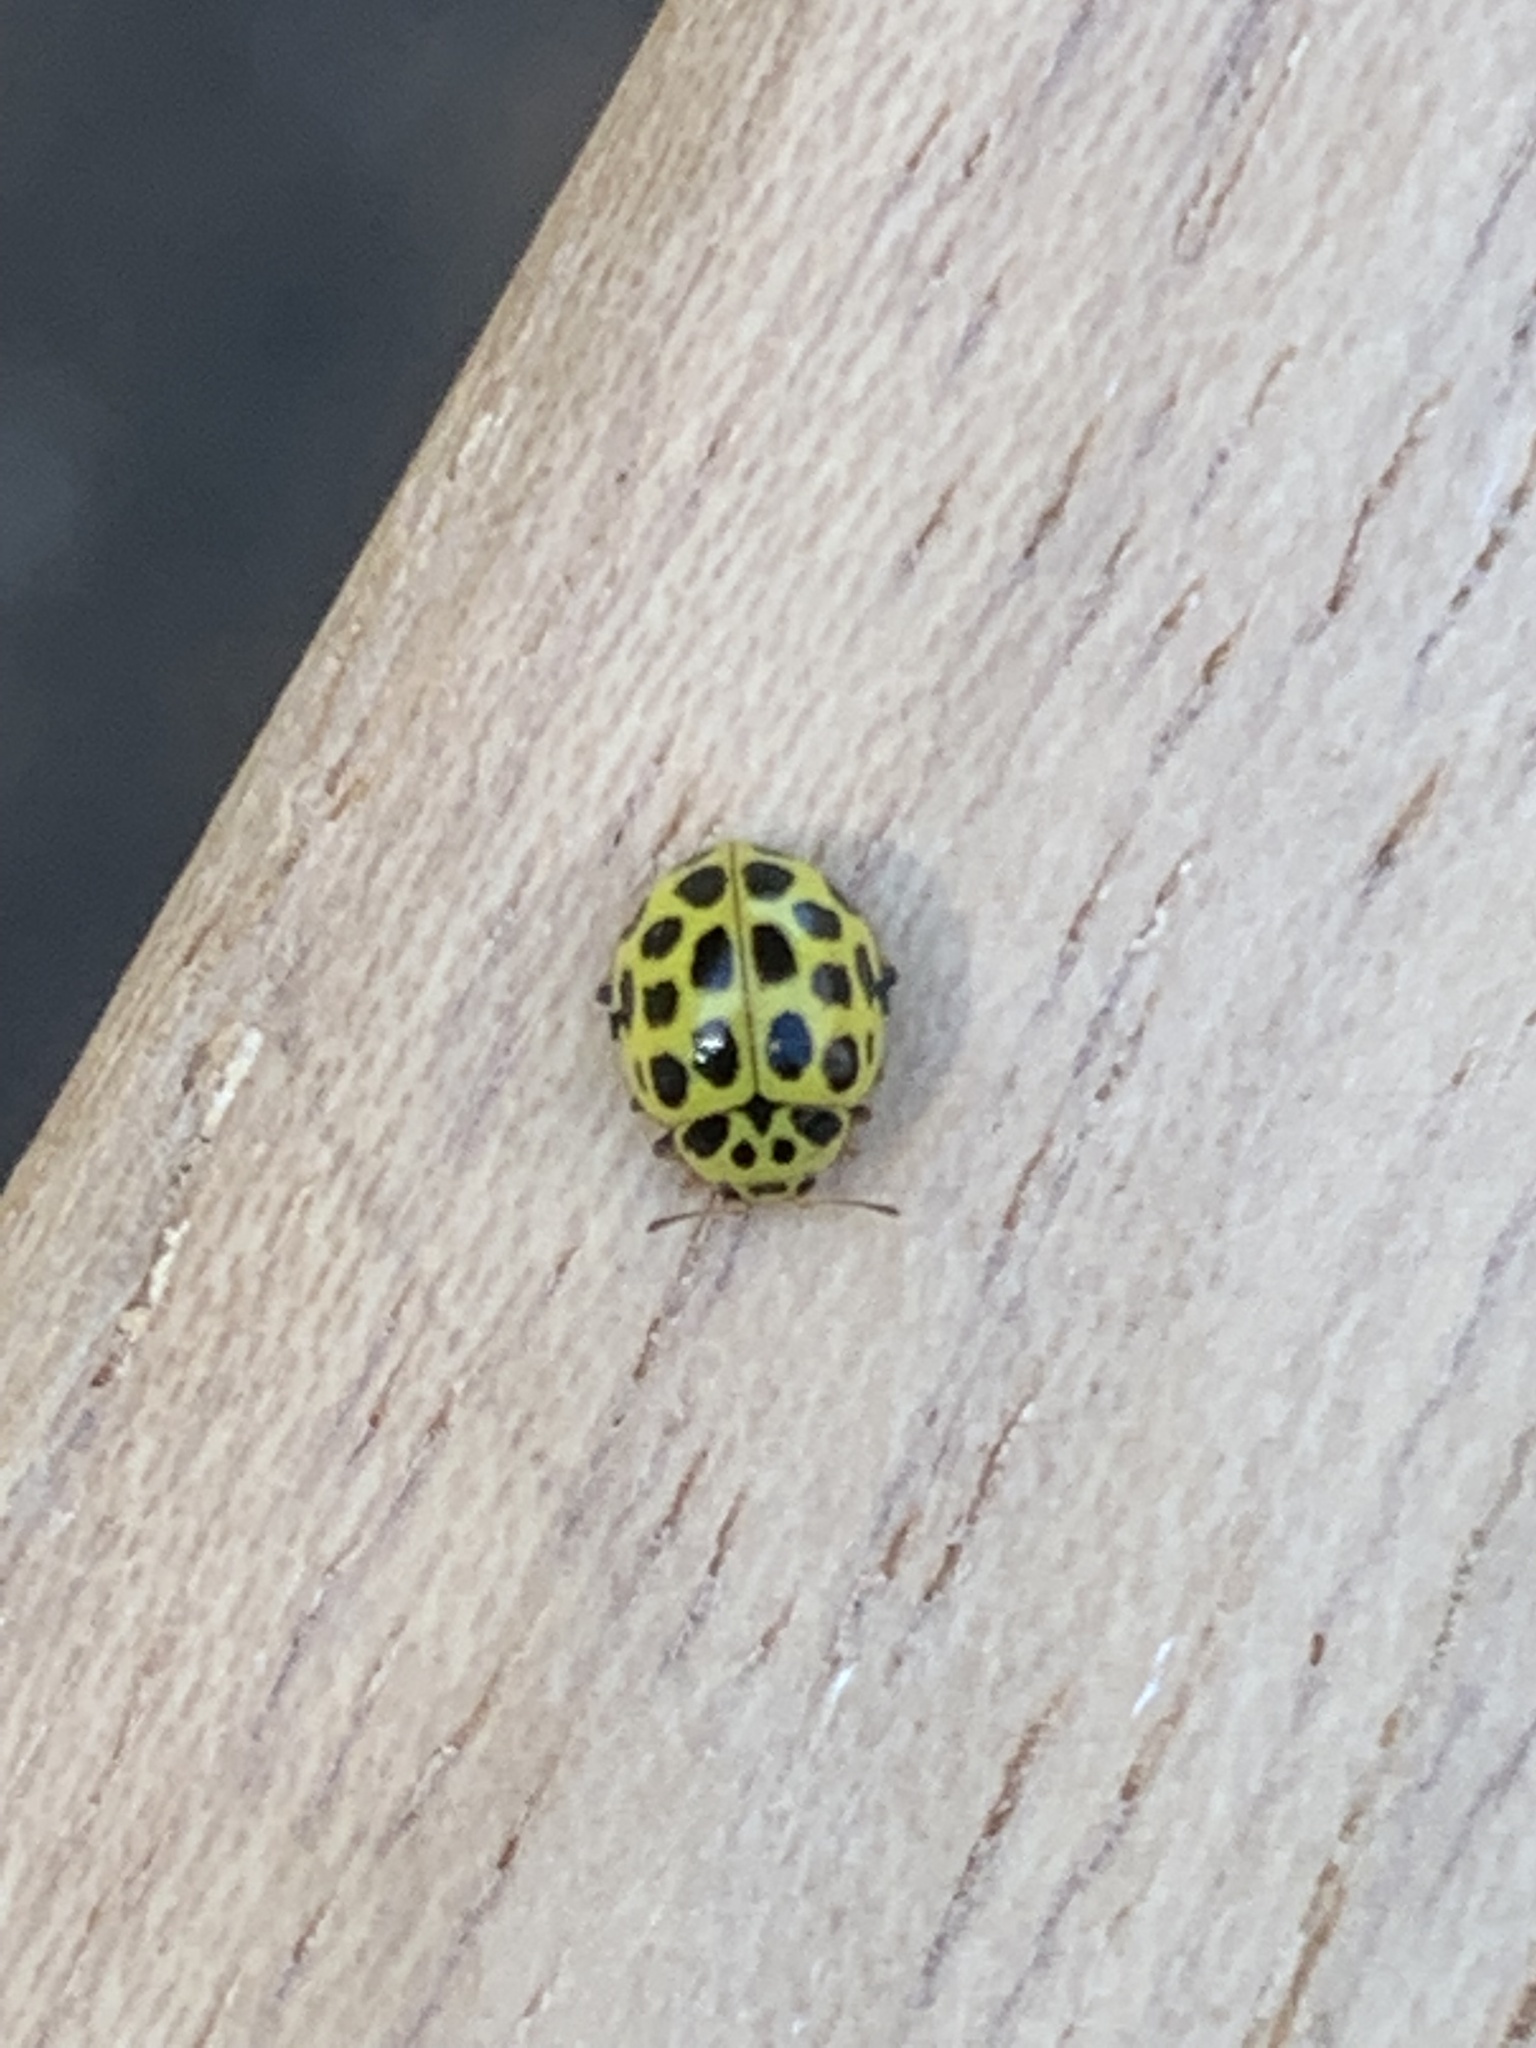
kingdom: Animalia
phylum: Arthropoda
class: Insecta
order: Coleoptera
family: Coccinellidae
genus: Psyllobora
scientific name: Psyllobora vigintiduopunctata
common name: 22-spot ladybird
